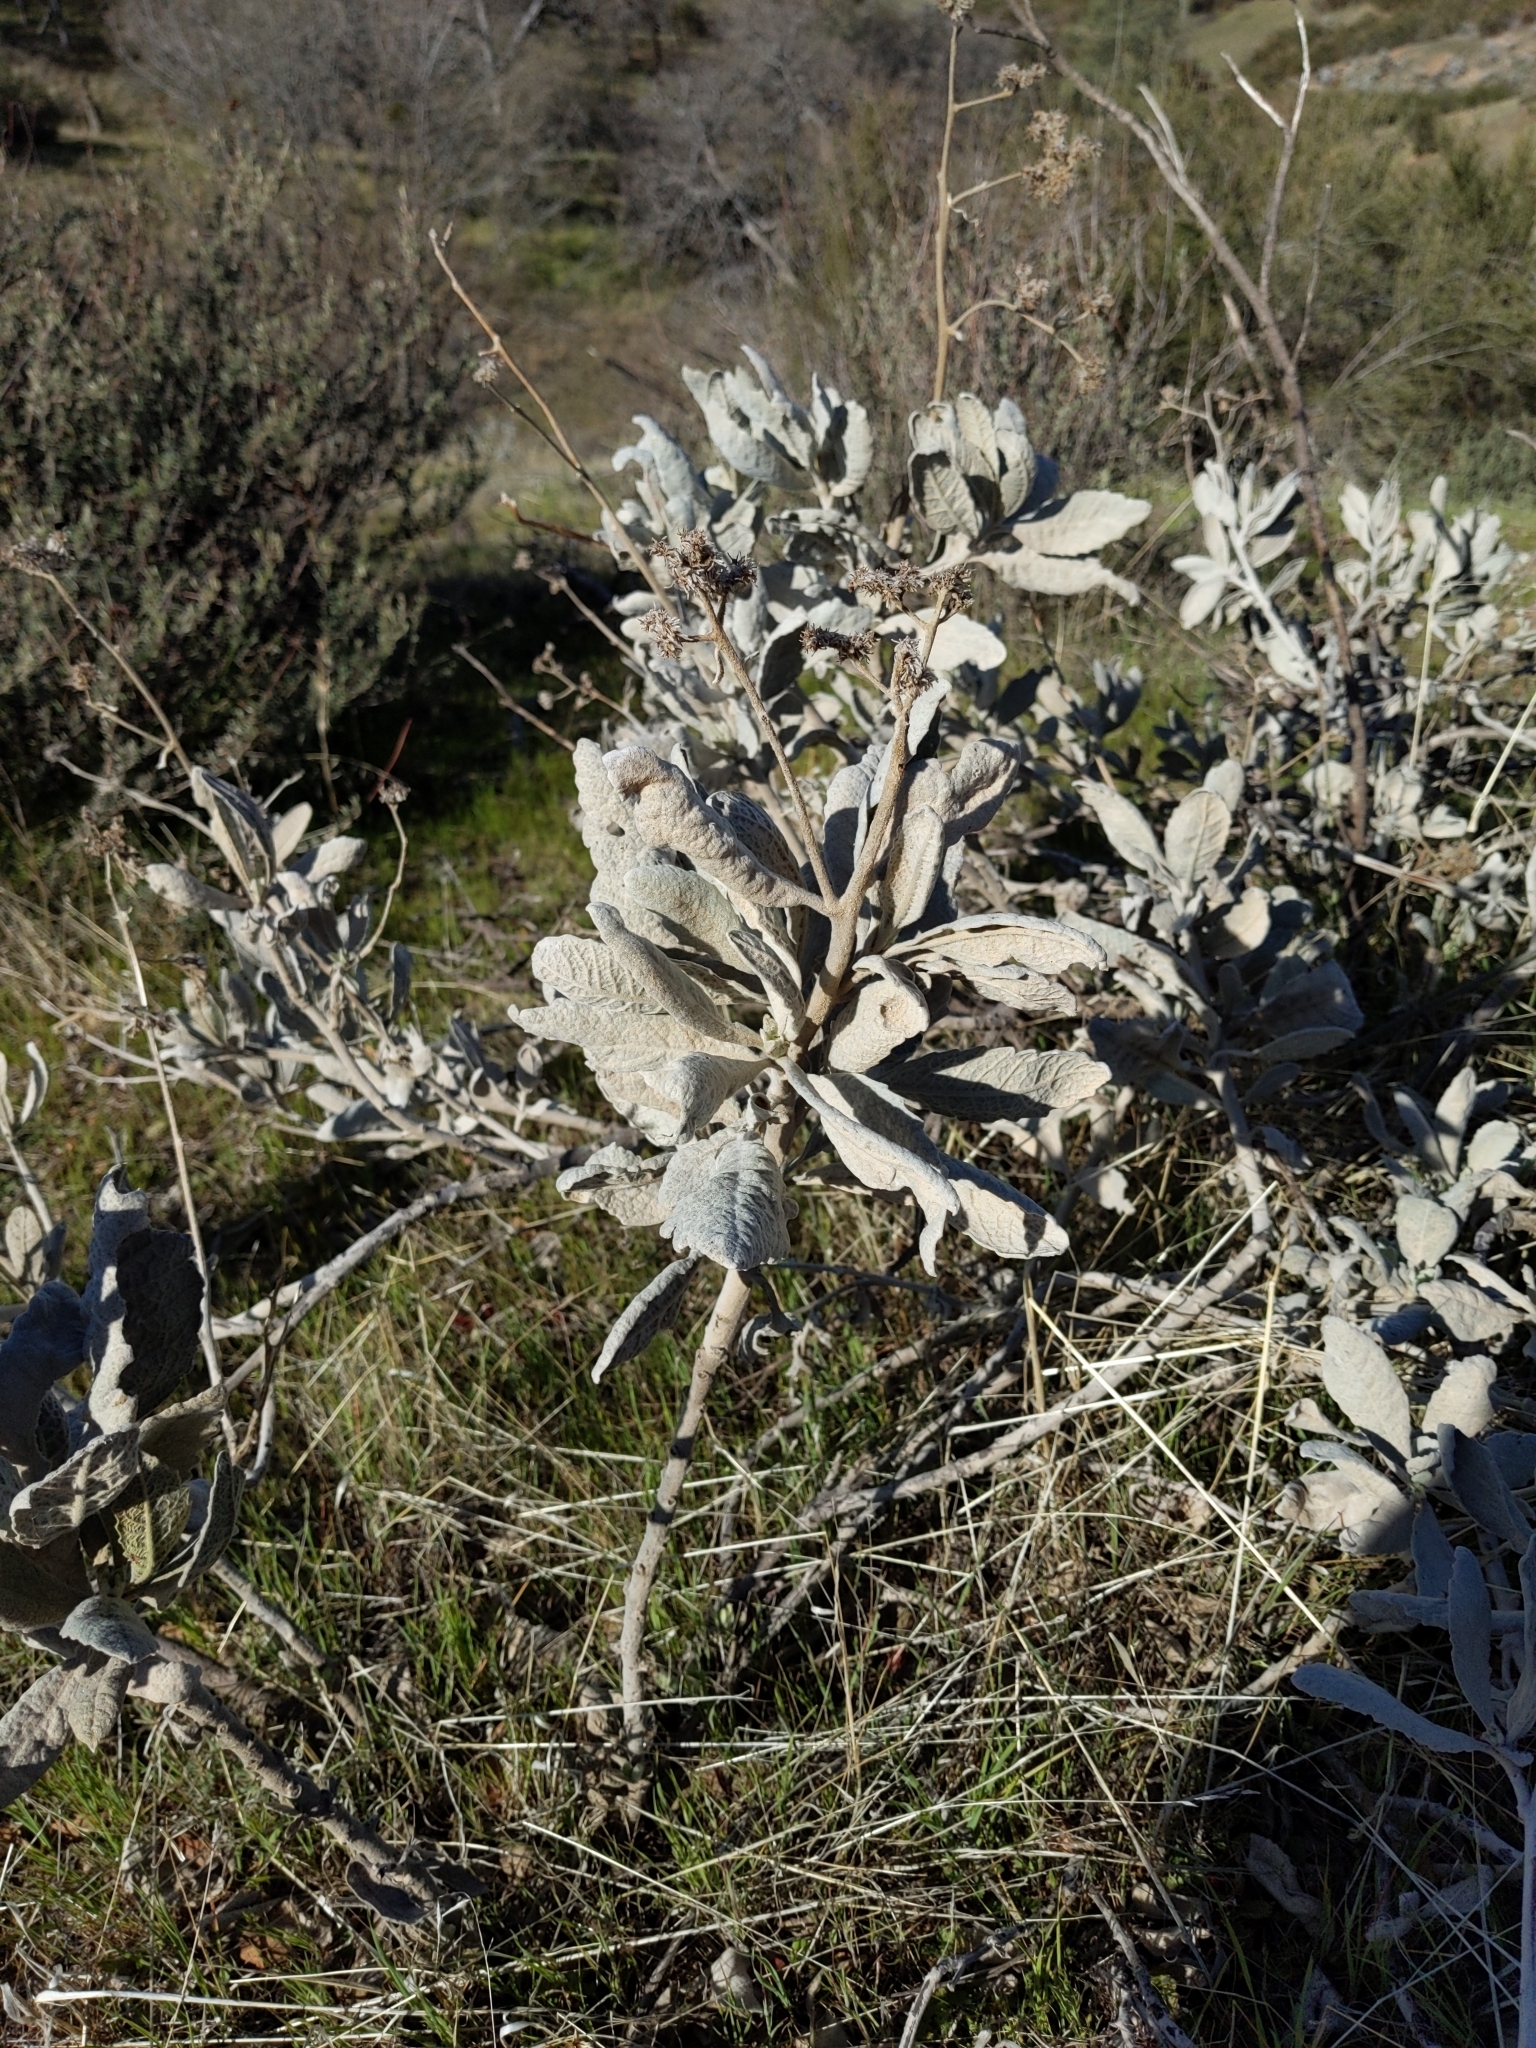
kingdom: Plantae
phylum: Tracheophyta
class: Magnoliopsida
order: Boraginales
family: Namaceae
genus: Eriodictyon
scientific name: Eriodictyon tomentosum
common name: Woolly yerba-santa
